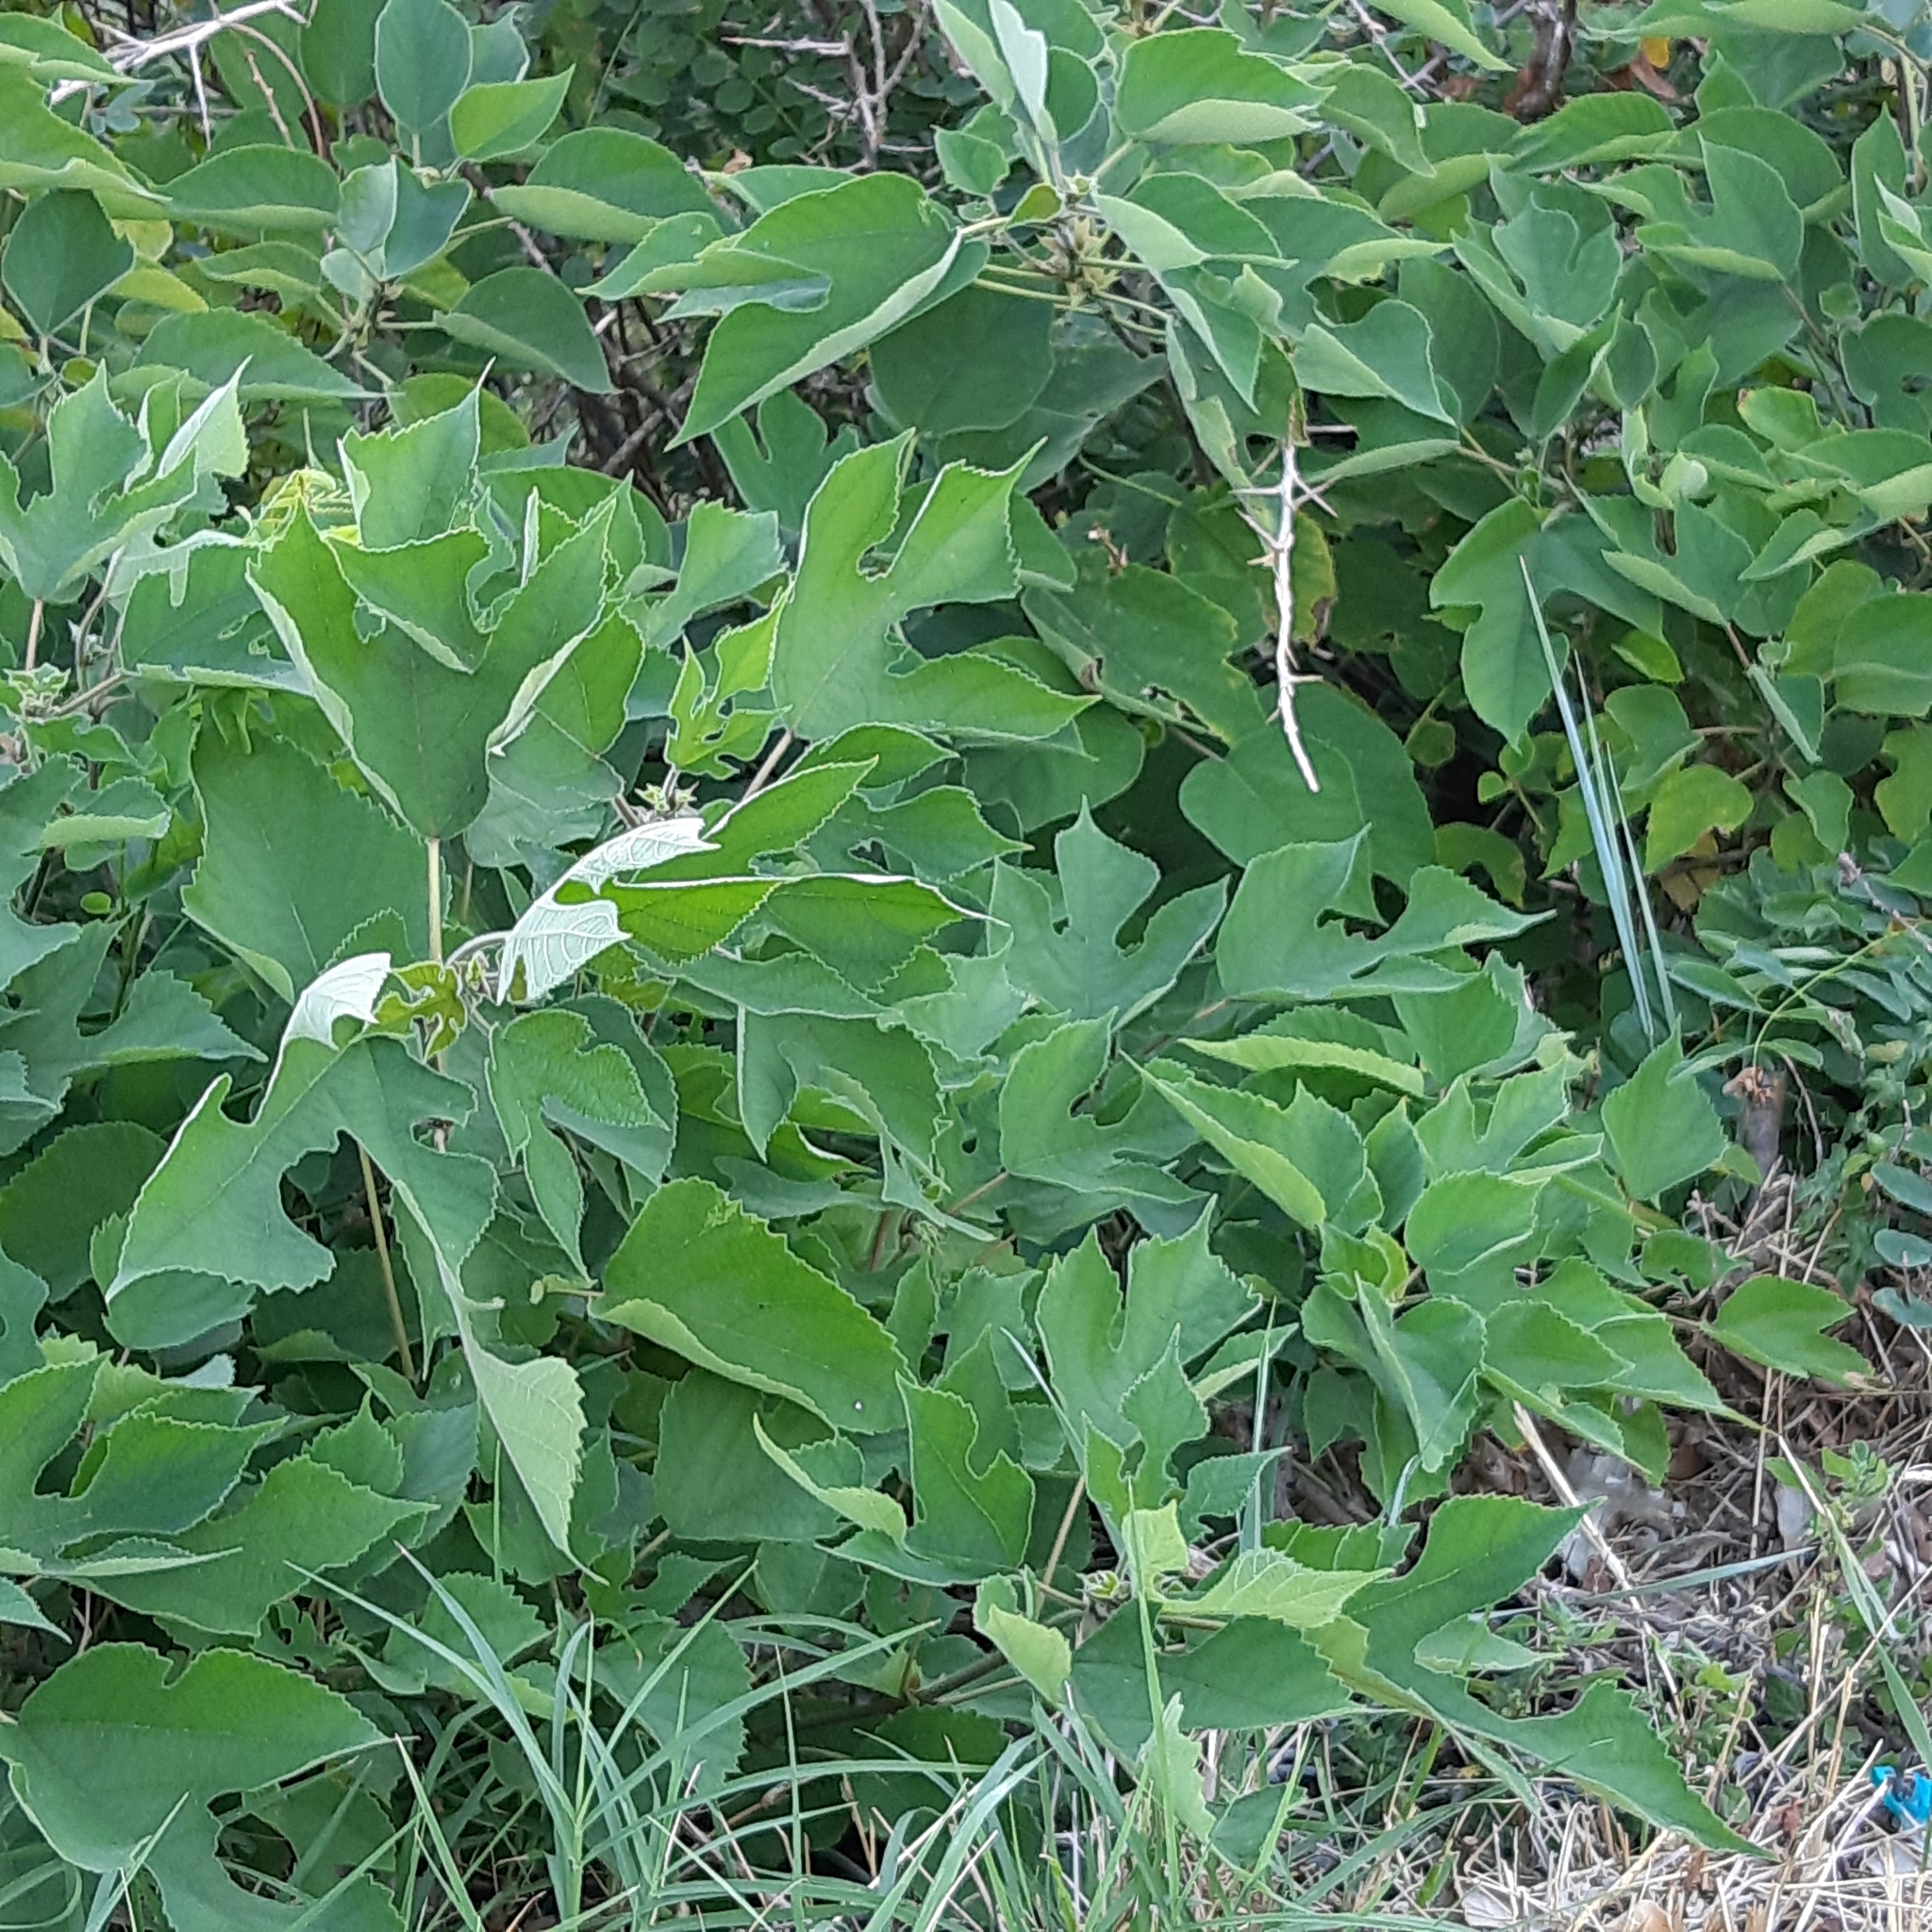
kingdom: Plantae
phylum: Tracheophyta
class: Magnoliopsida
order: Rosales
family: Moraceae
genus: Broussonetia
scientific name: Broussonetia papyrifera
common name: Paper mulberry
